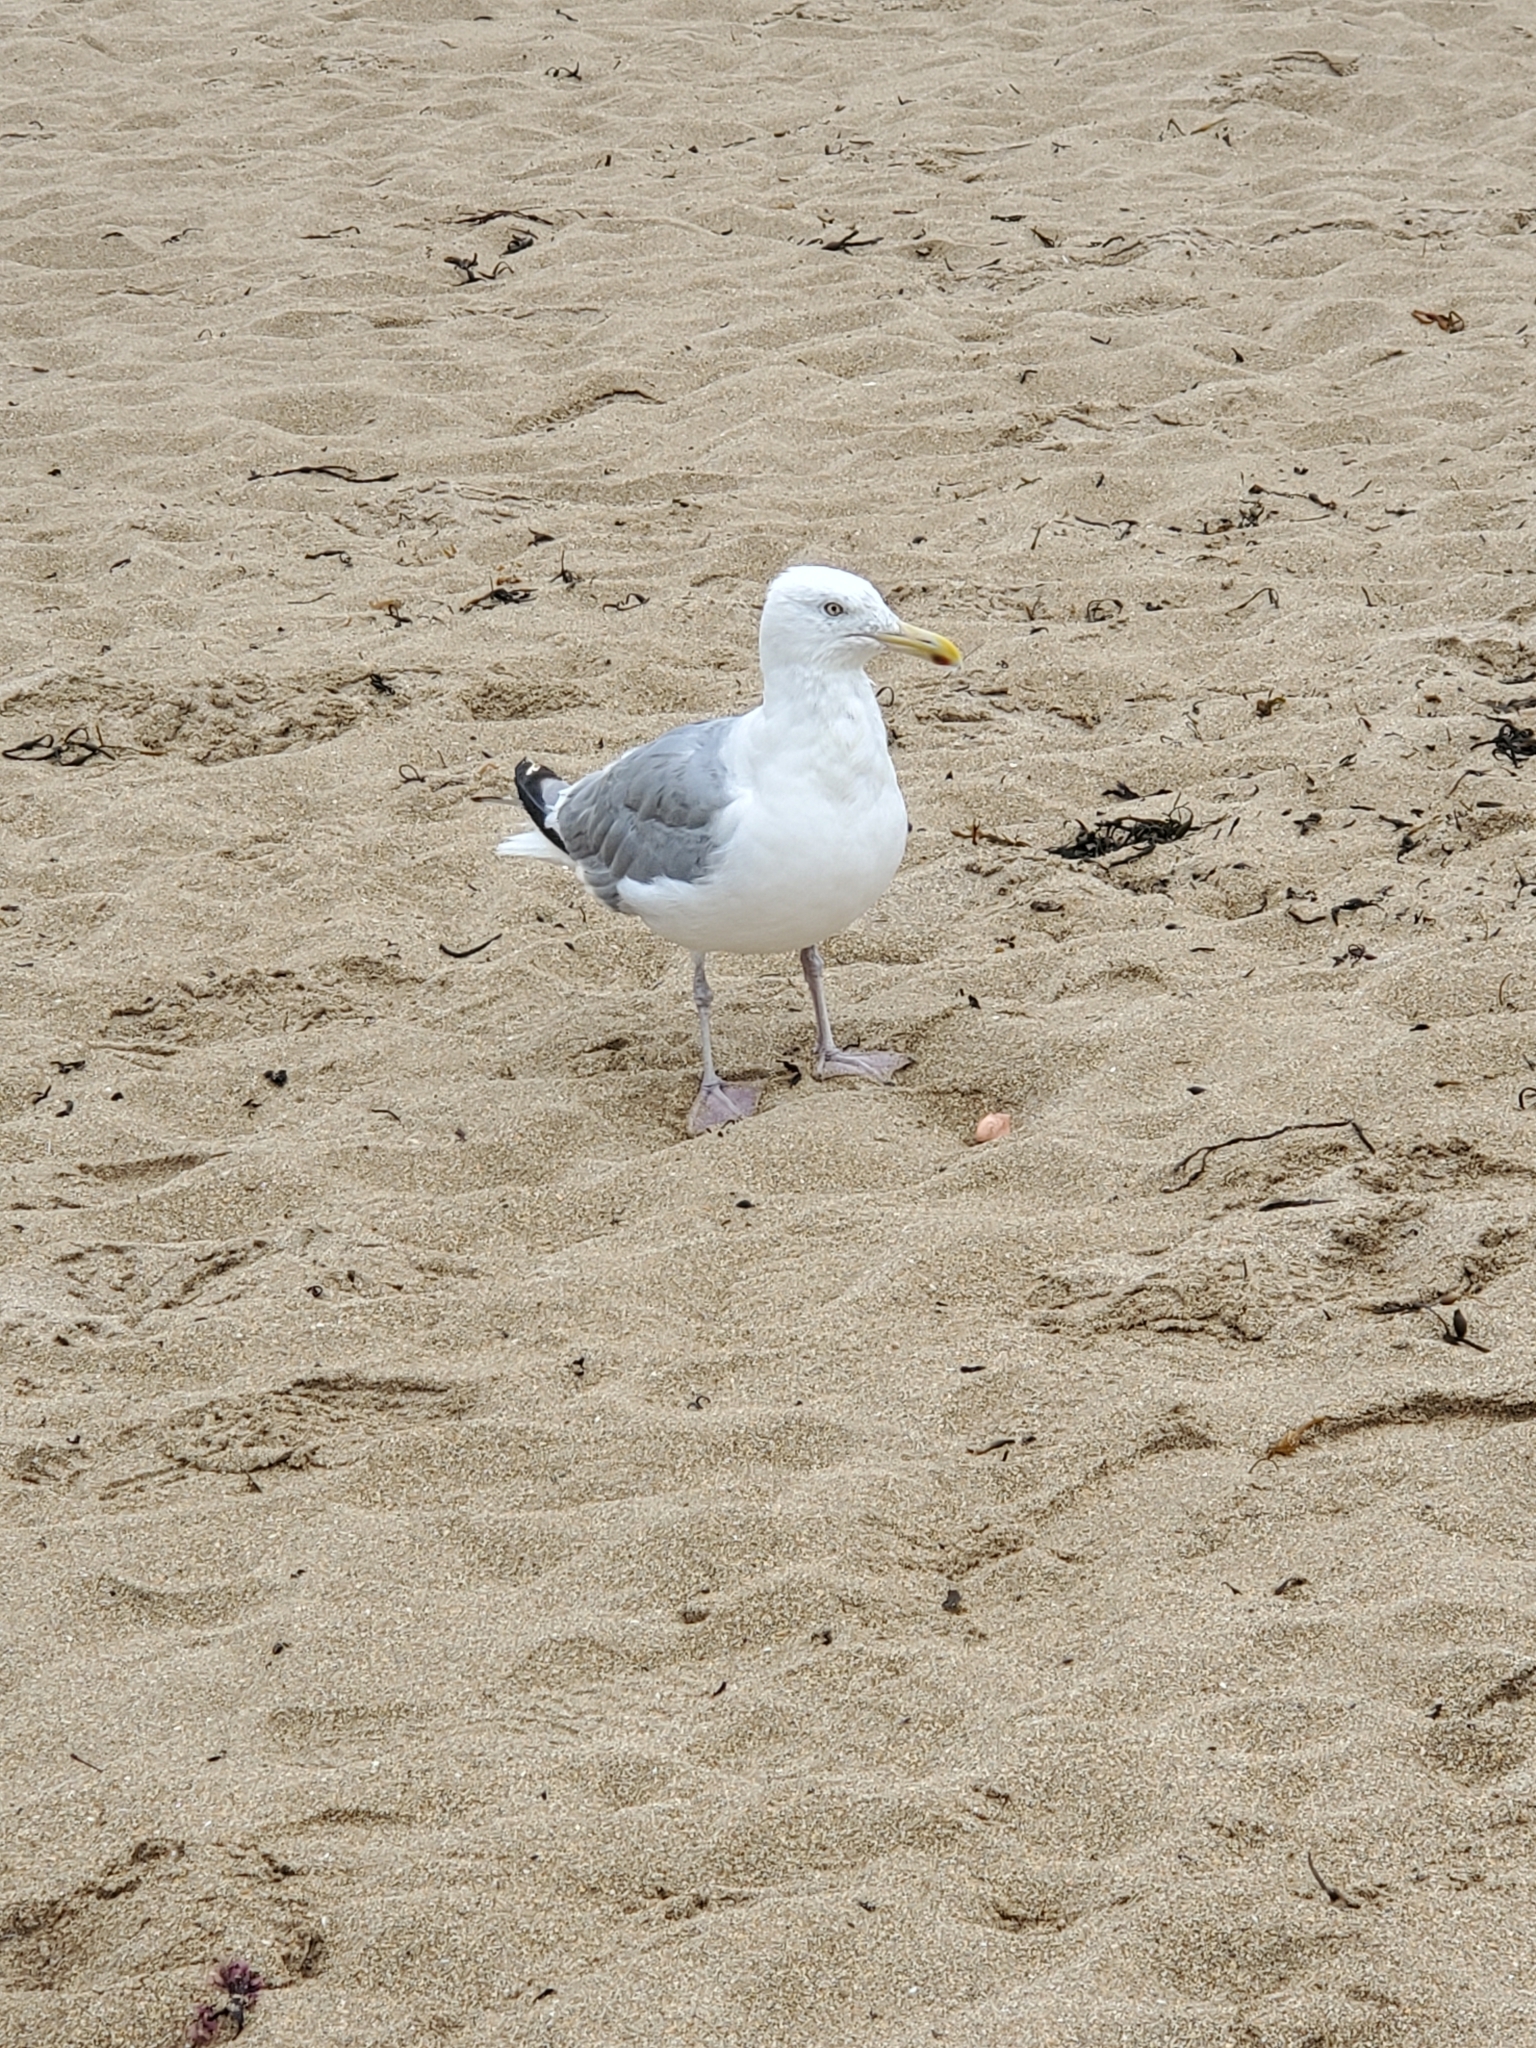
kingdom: Animalia
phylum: Chordata
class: Aves
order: Charadriiformes
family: Laridae
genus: Larus
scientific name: Larus argentatus
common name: Herring gull
